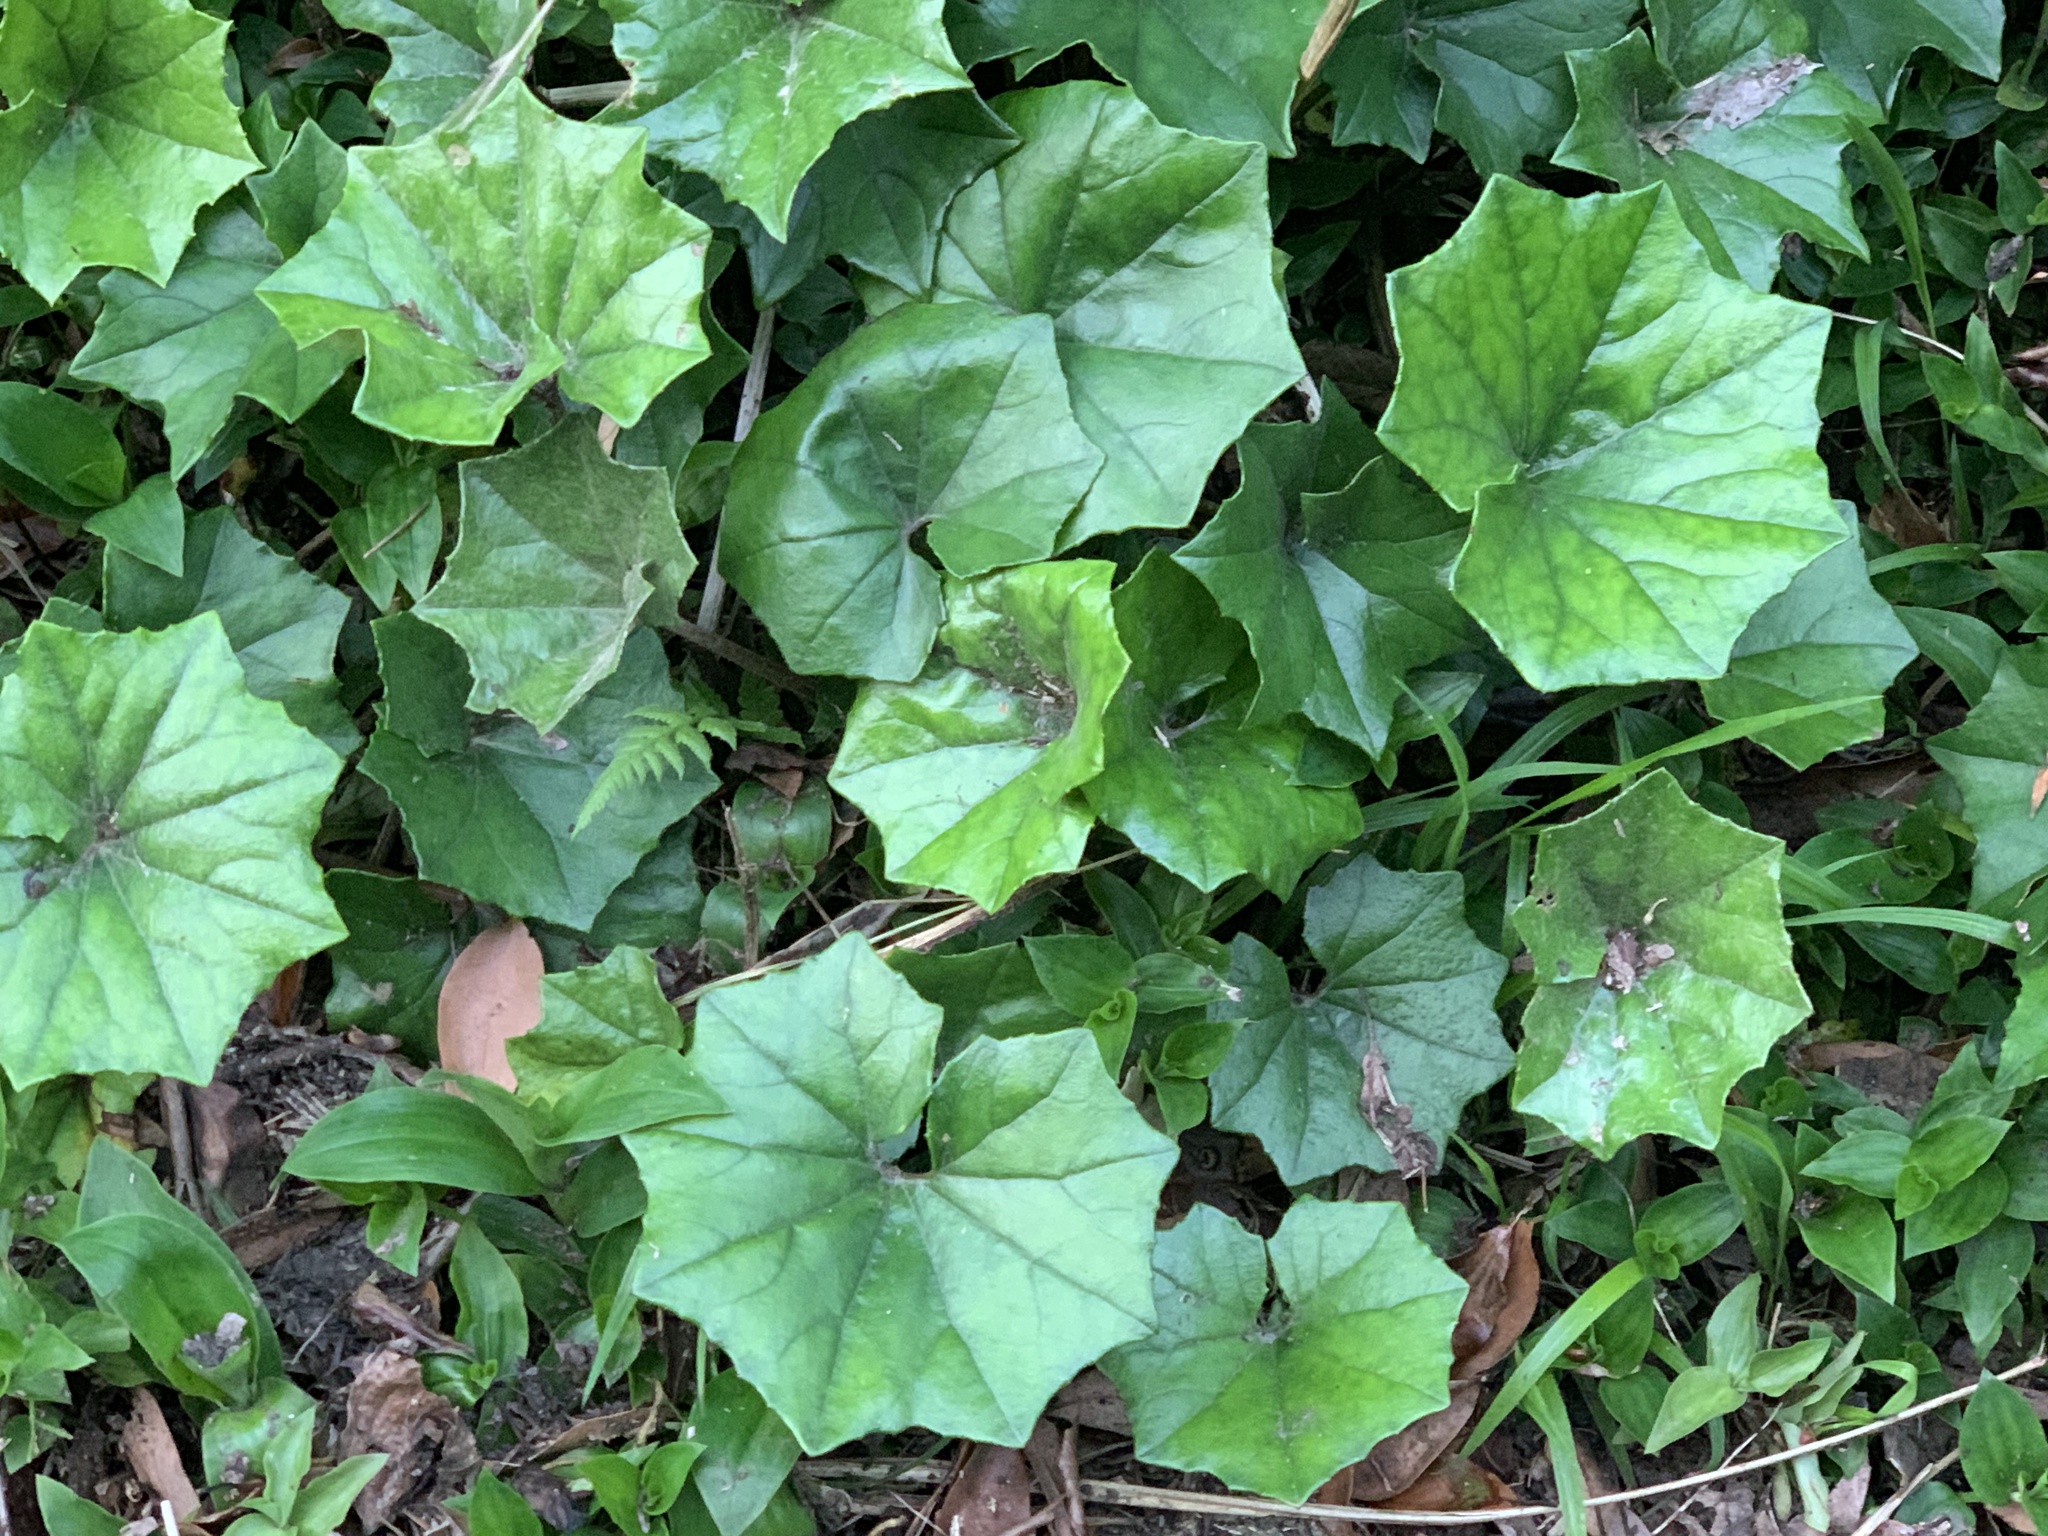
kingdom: Plantae
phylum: Tracheophyta
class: Magnoliopsida
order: Asterales
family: Asteraceae
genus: Farfugium
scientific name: Farfugium japonicum
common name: Leopardplant
